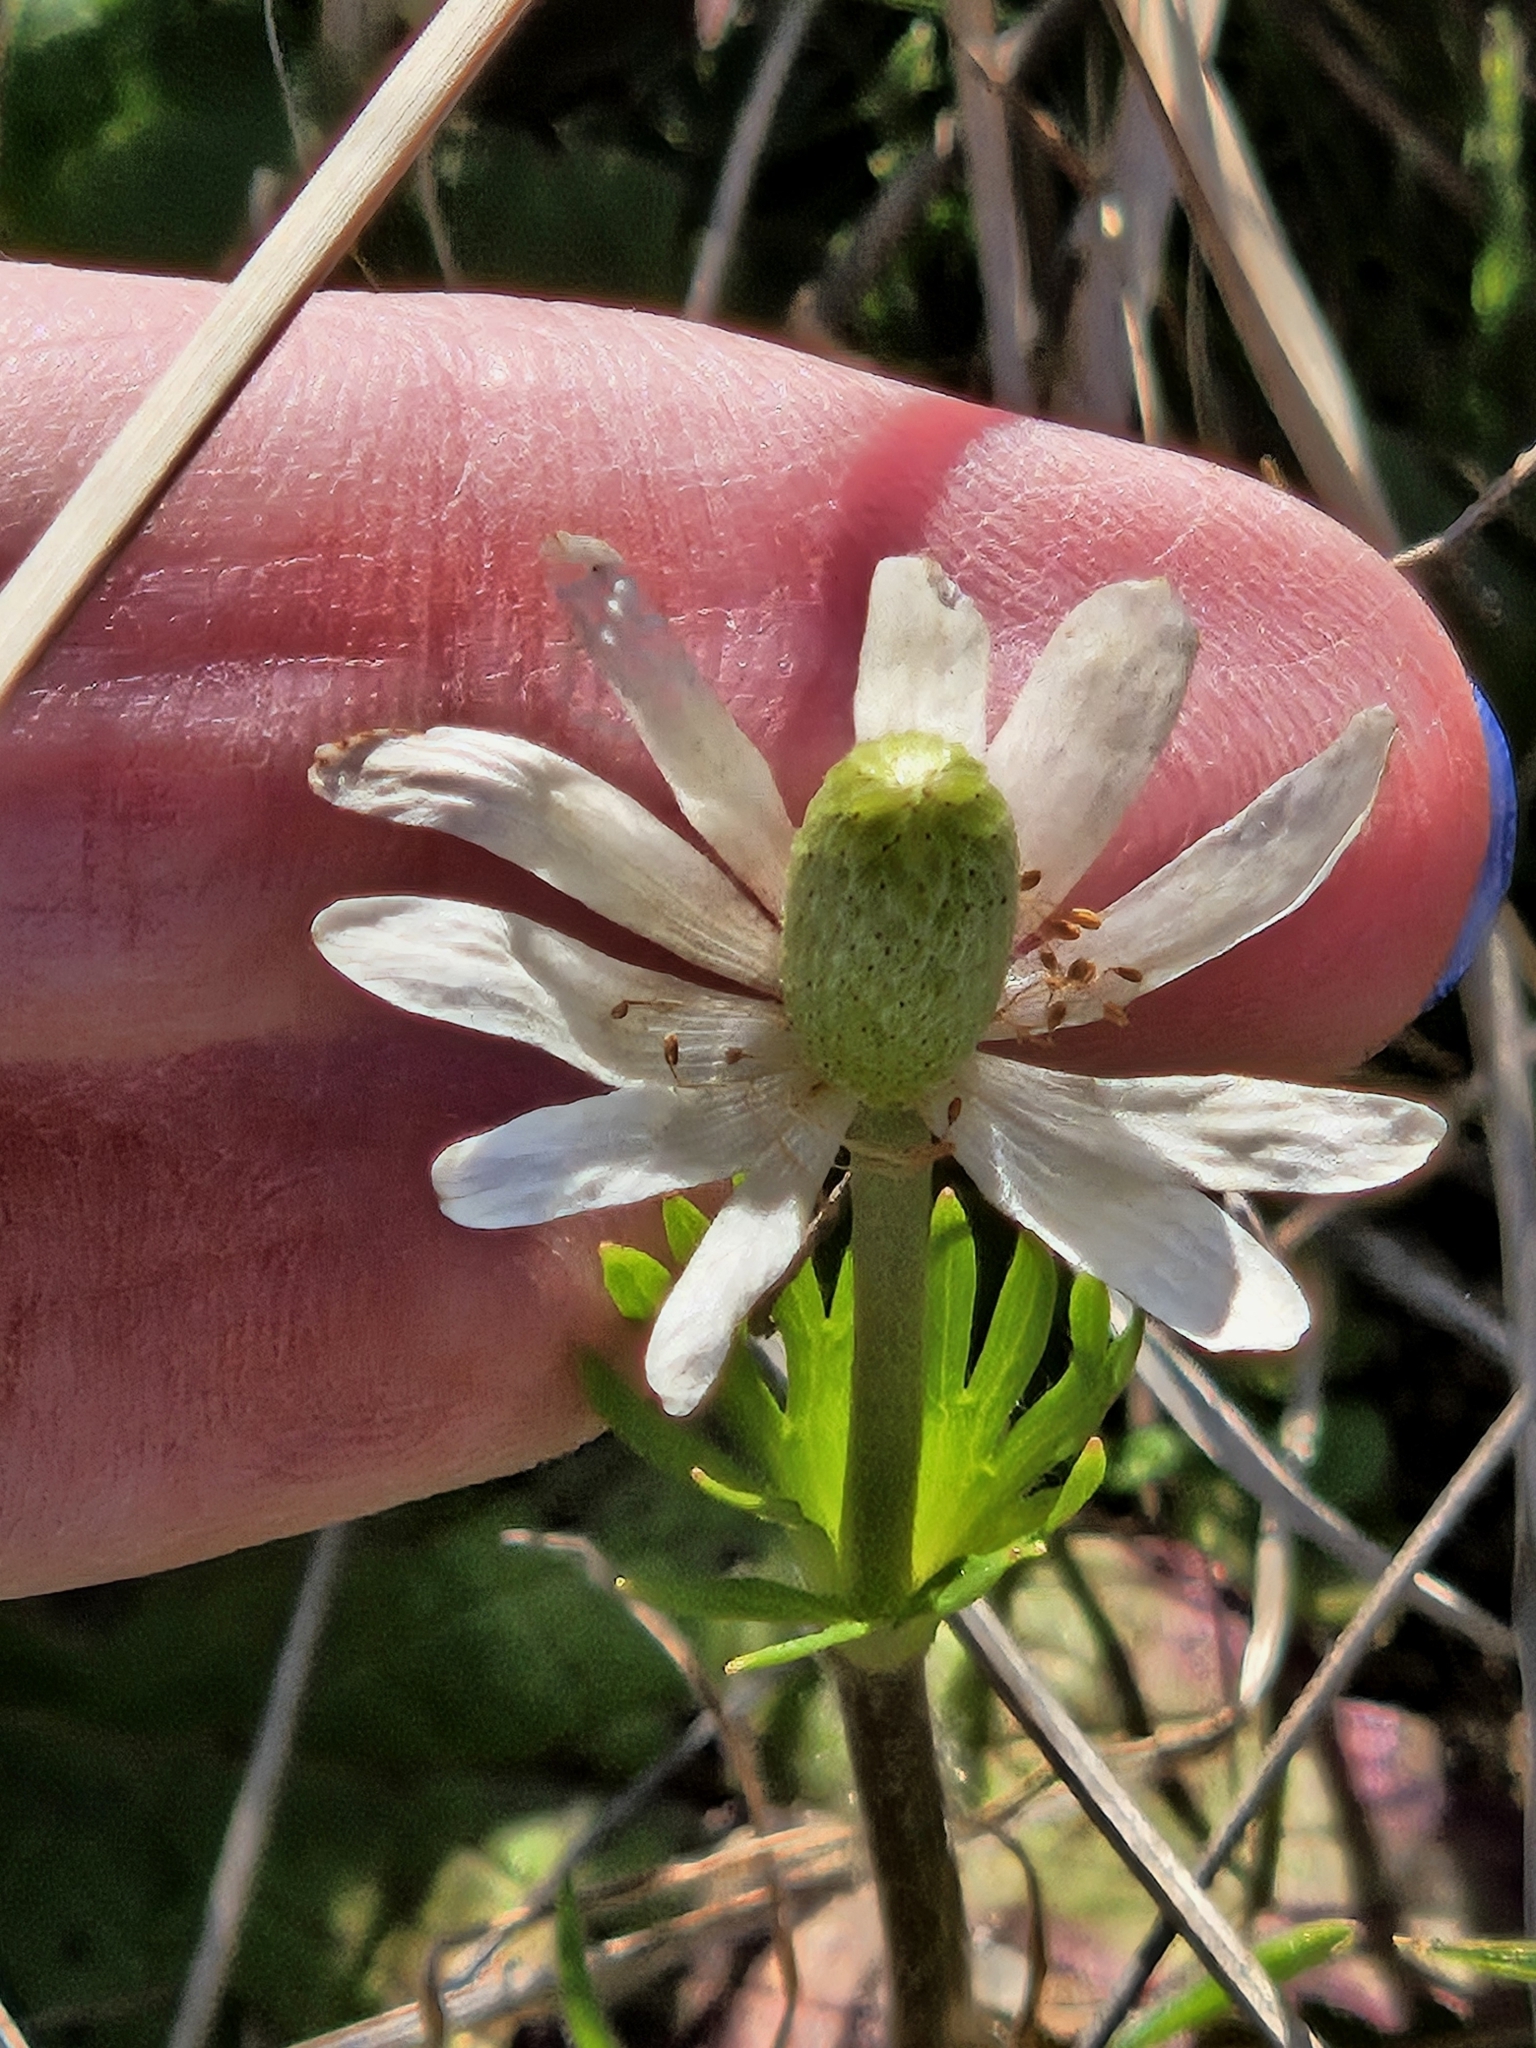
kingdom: Plantae
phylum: Tracheophyta
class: Magnoliopsida
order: Ranunculales
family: Ranunculaceae
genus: Anemone
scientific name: Anemone berlandieri
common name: Ten-petal anemone
